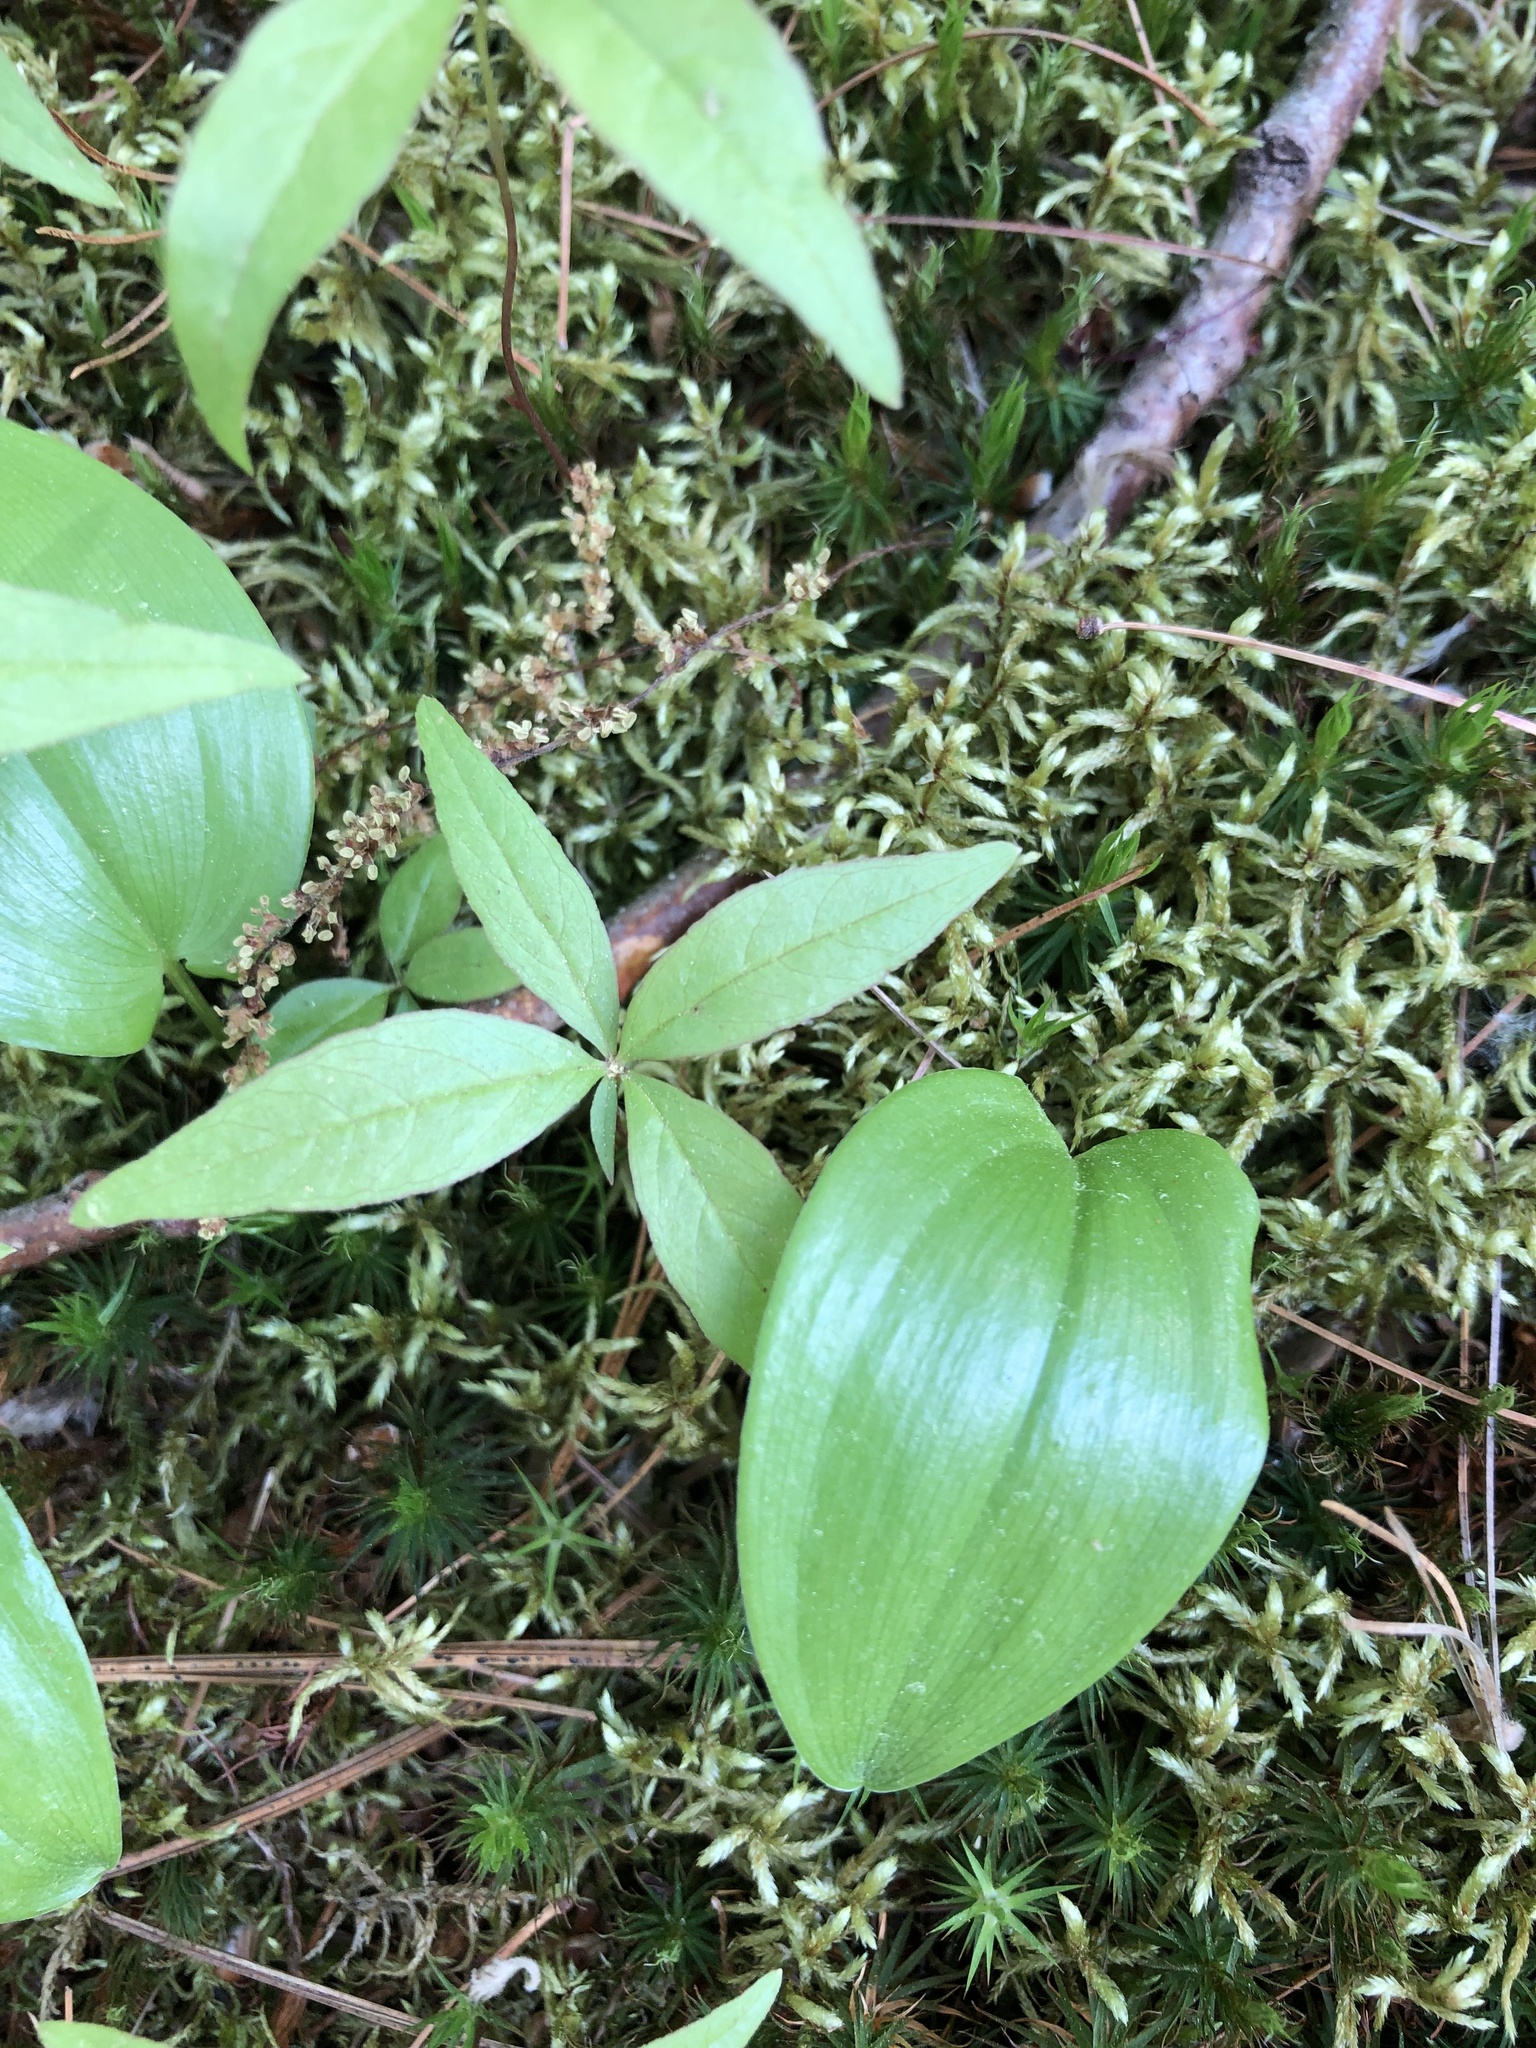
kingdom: Plantae
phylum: Tracheophyta
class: Magnoliopsida
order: Ericales
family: Primulaceae
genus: Lysimachia
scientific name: Lysimachia borealis
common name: American starflower
